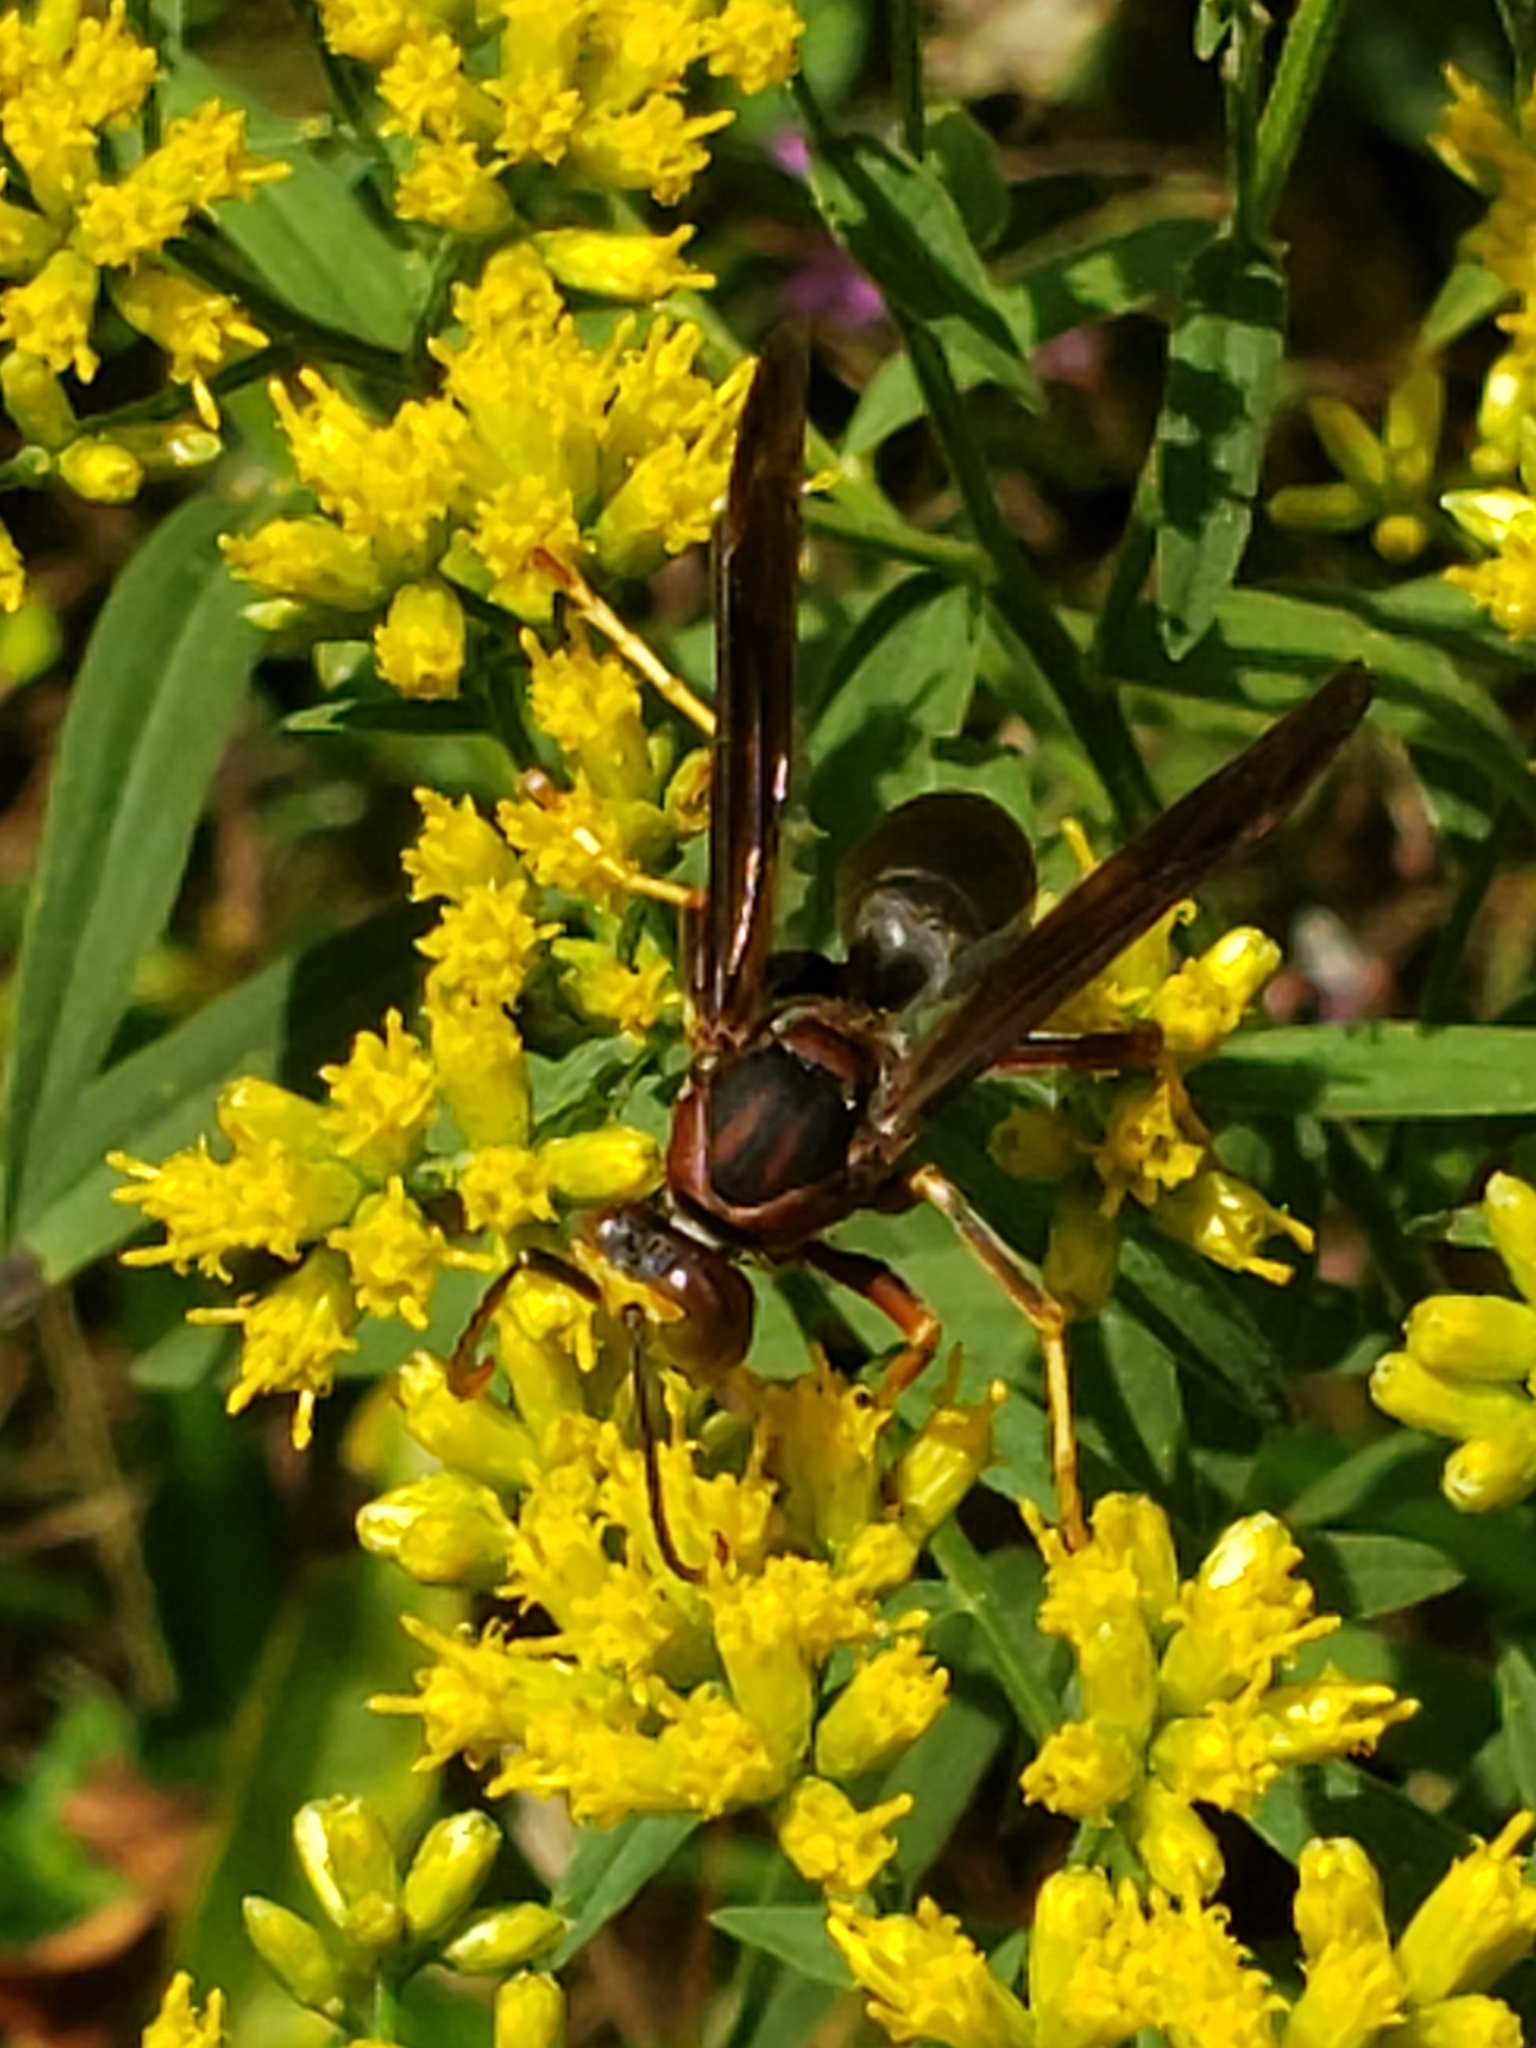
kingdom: Animalia
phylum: Arthropoda
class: Insecta
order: Hymenoptera
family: Eumenidae
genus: Polistes
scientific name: Polistes metricus
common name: Metric paper wasp
